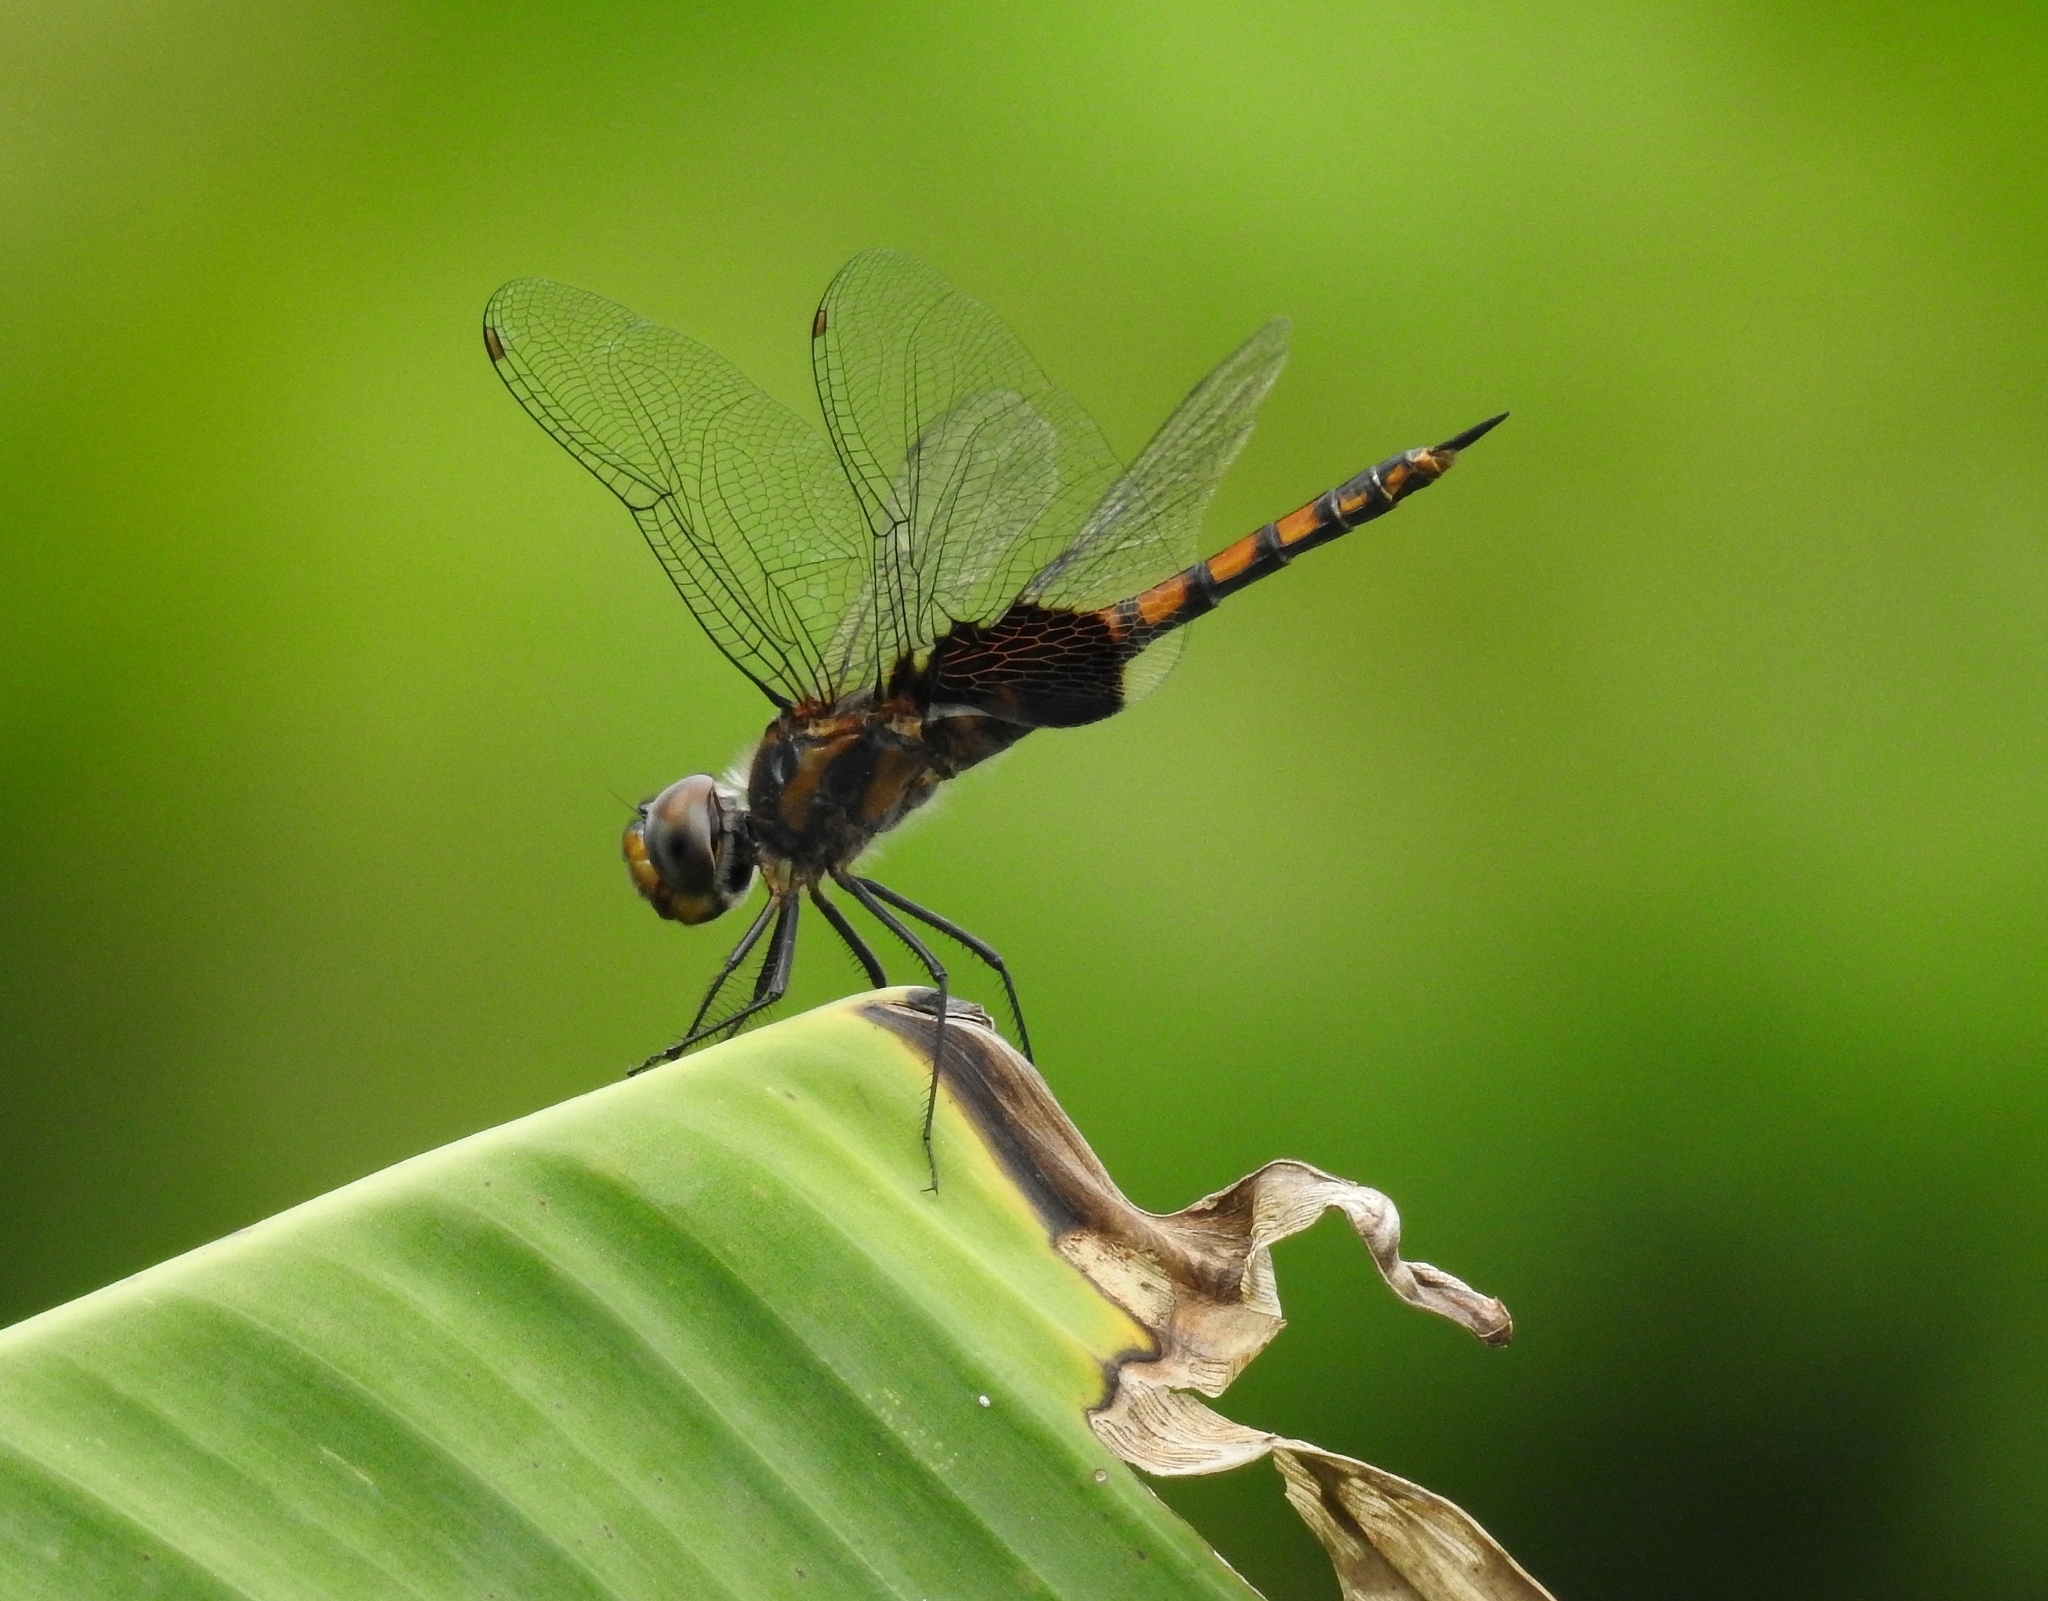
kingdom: Animalia
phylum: Arthropoda
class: Insecta
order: Odonata
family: Libellulidae
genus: Tramea
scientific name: Tramea limbata
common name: Ferruginous glider
